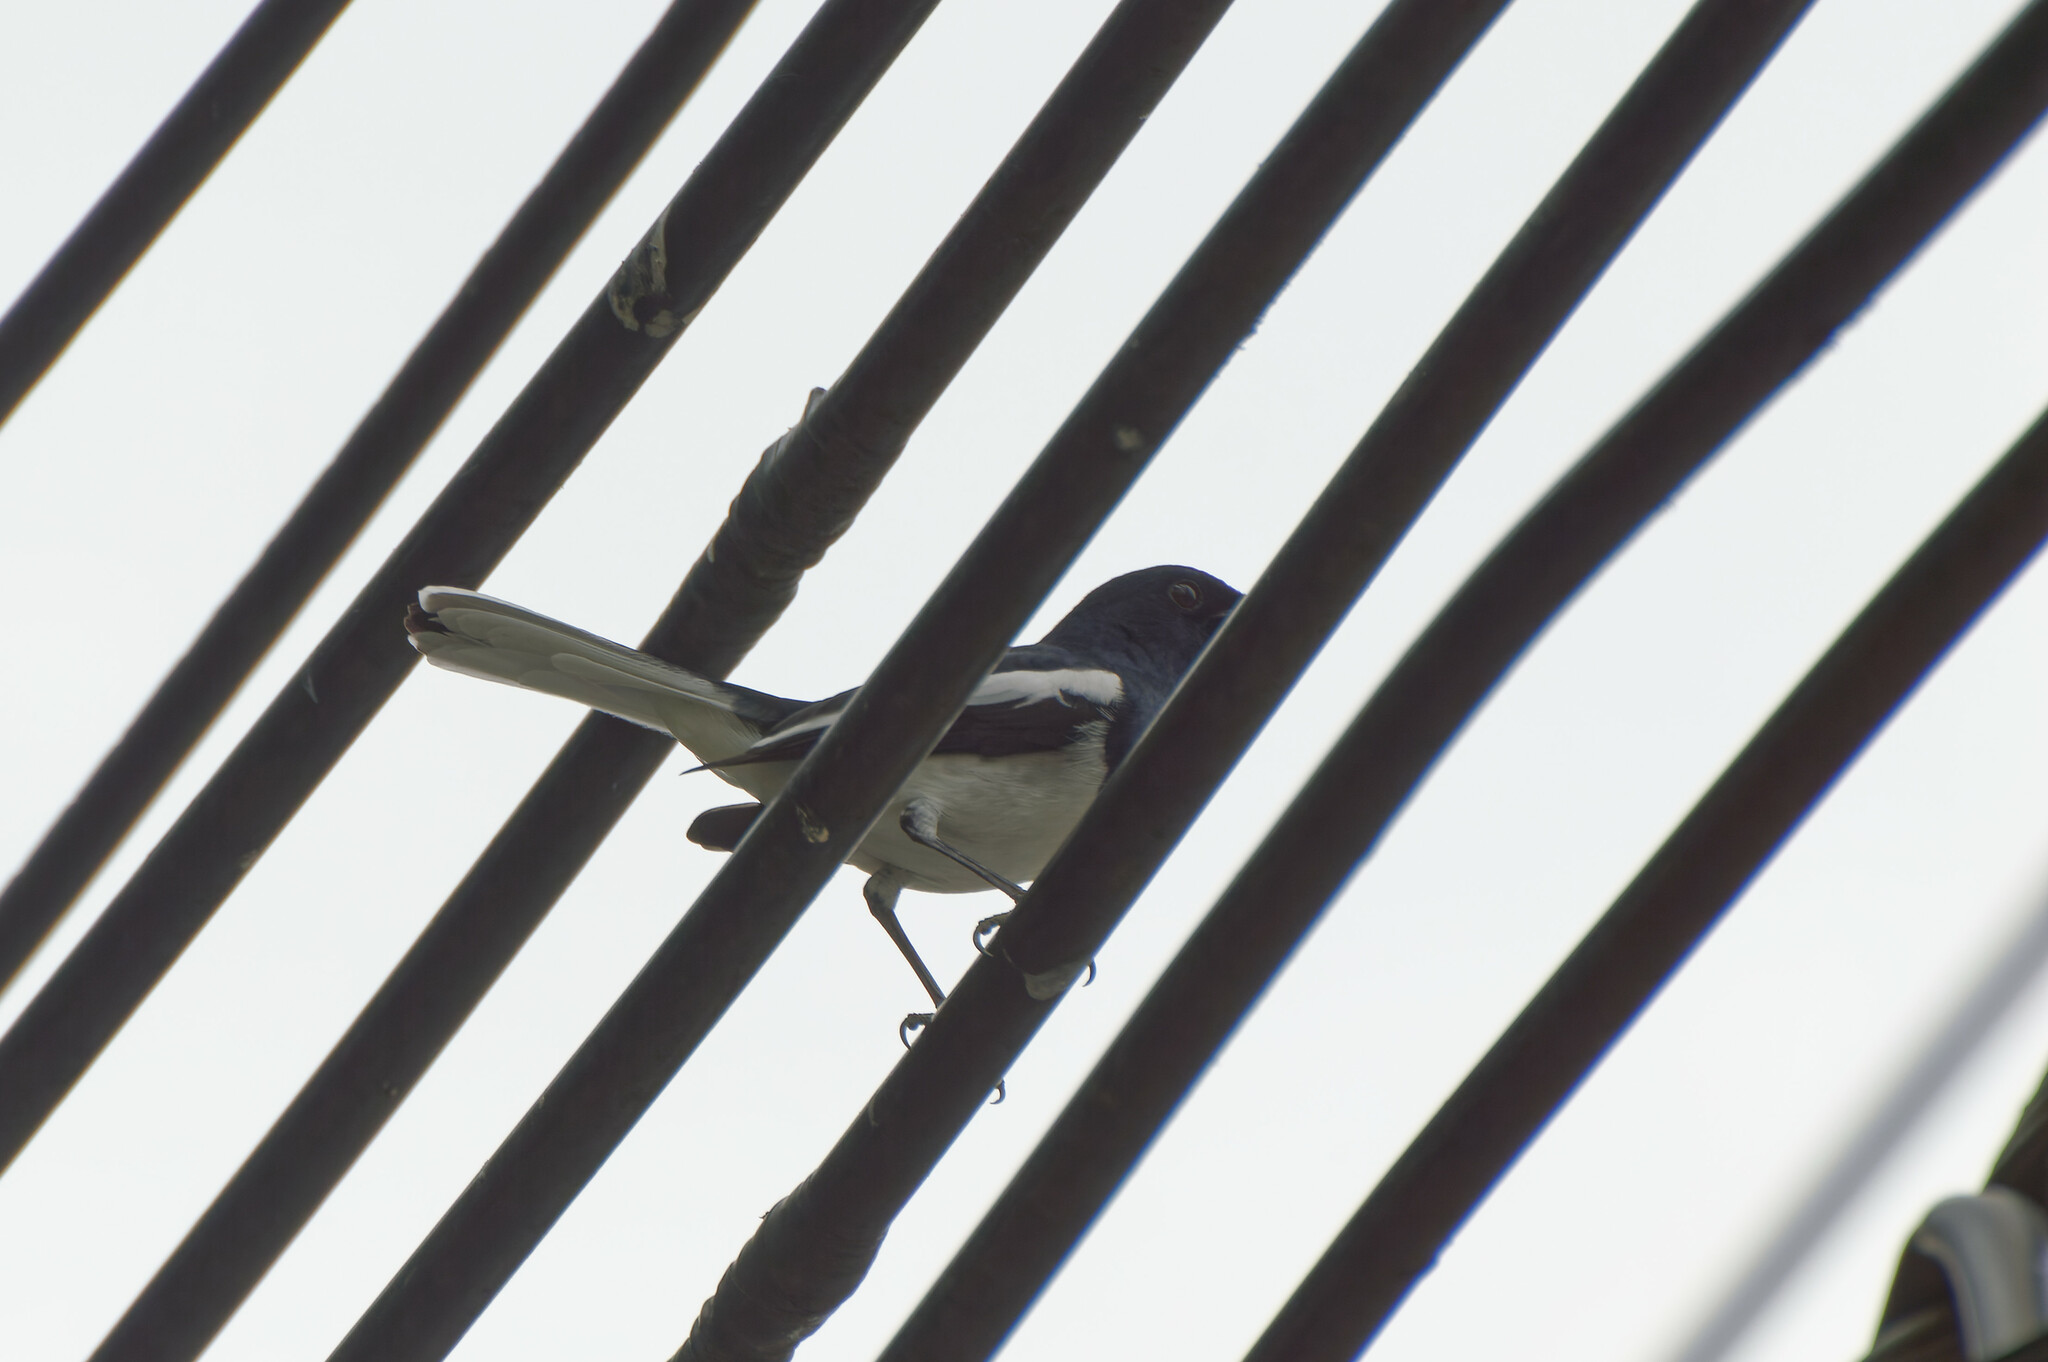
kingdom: Animalia
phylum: Chordata
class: Aves
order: Passeriformes
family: Muscicapidae
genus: Copsychus
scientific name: Copsychus saularis
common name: Oriental magpie-robin
